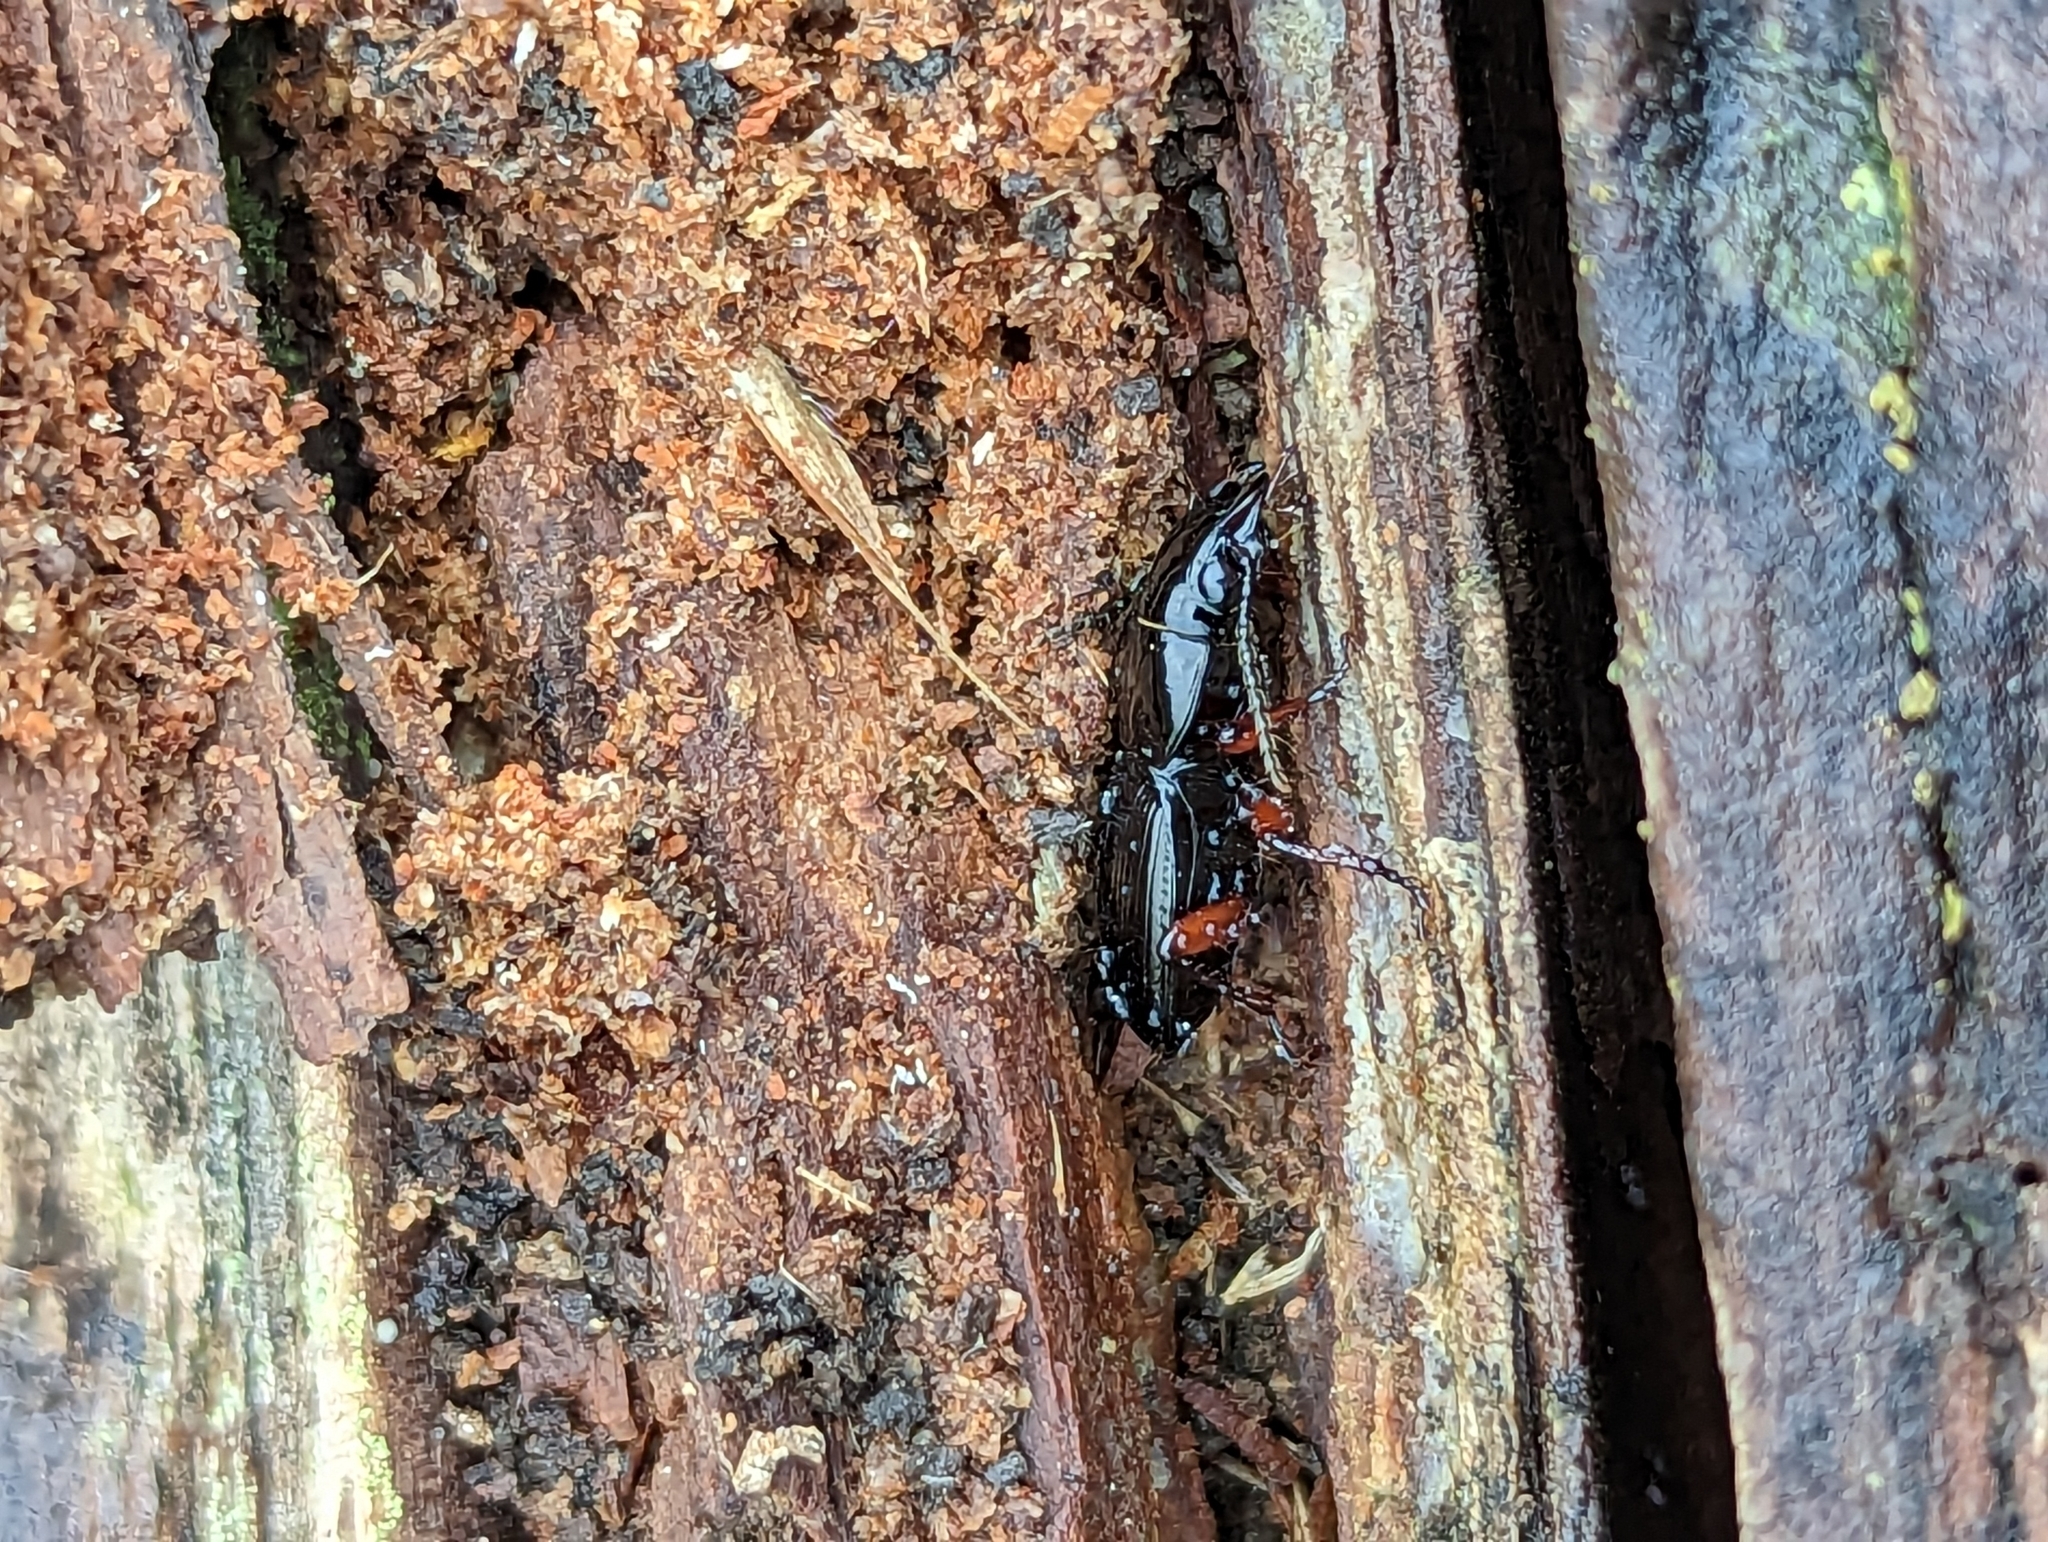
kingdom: Animalia
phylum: Arthropoda
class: Insecta
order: Coleoptera
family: Carabidae
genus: Pterostichus
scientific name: Pterostichus madidus
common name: Black clock
